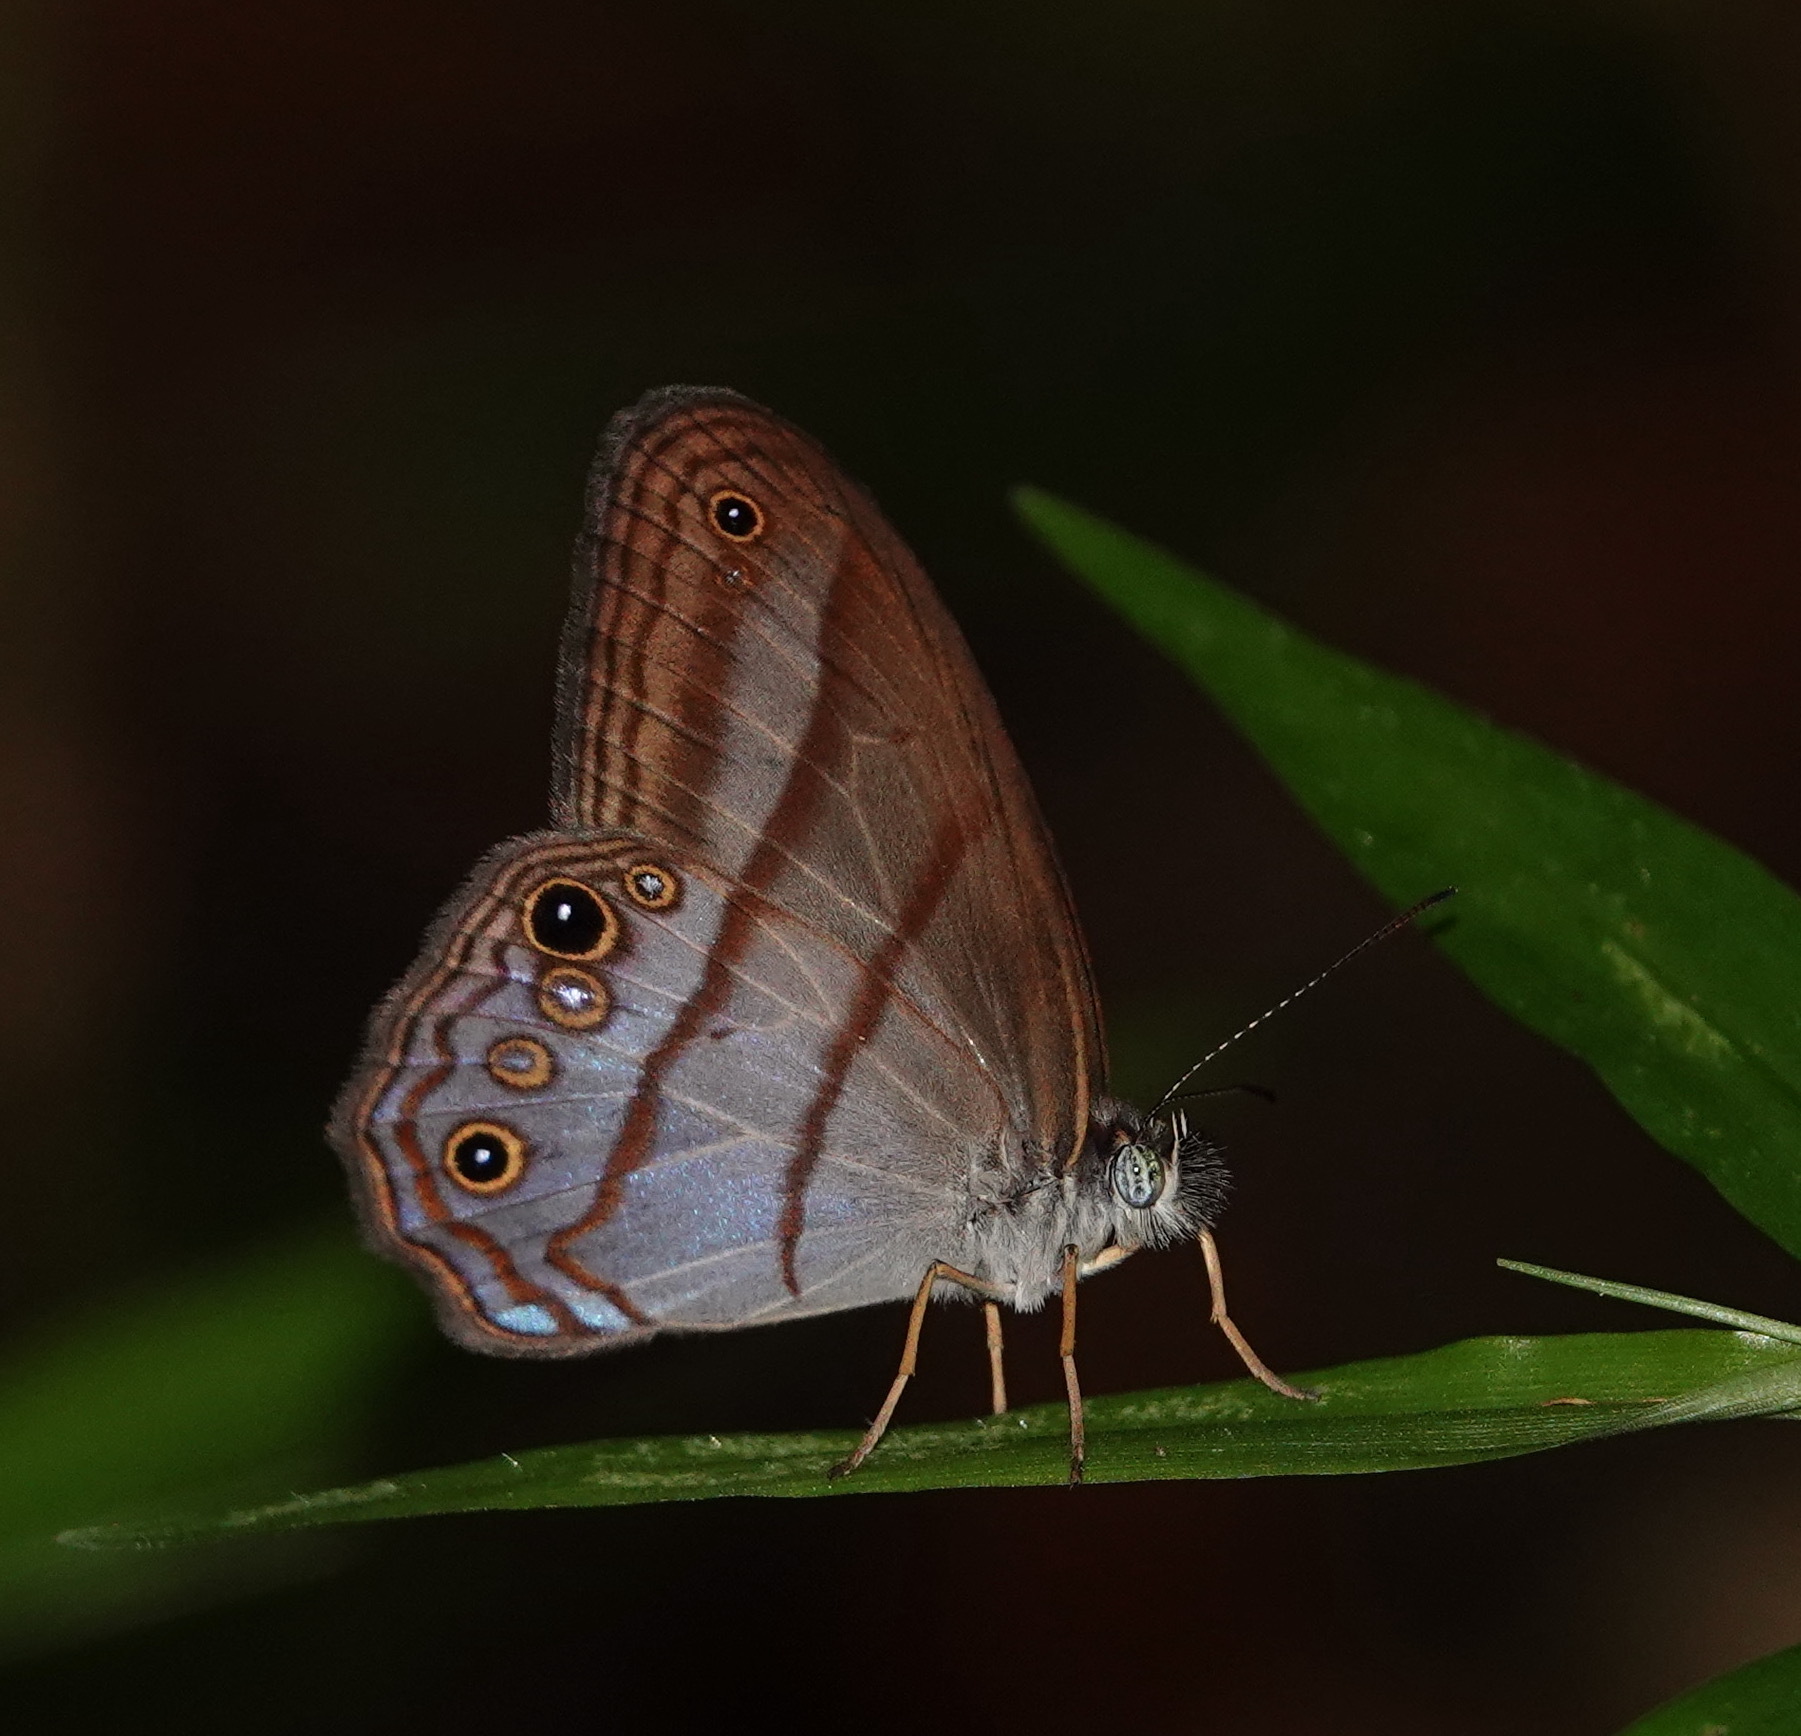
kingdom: Animalia
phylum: Arthropoda
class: Insecta
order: Lepidoptera
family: Nymphalidae
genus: Amiga
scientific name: Amiga arnaca
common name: Blue-topped satyr
